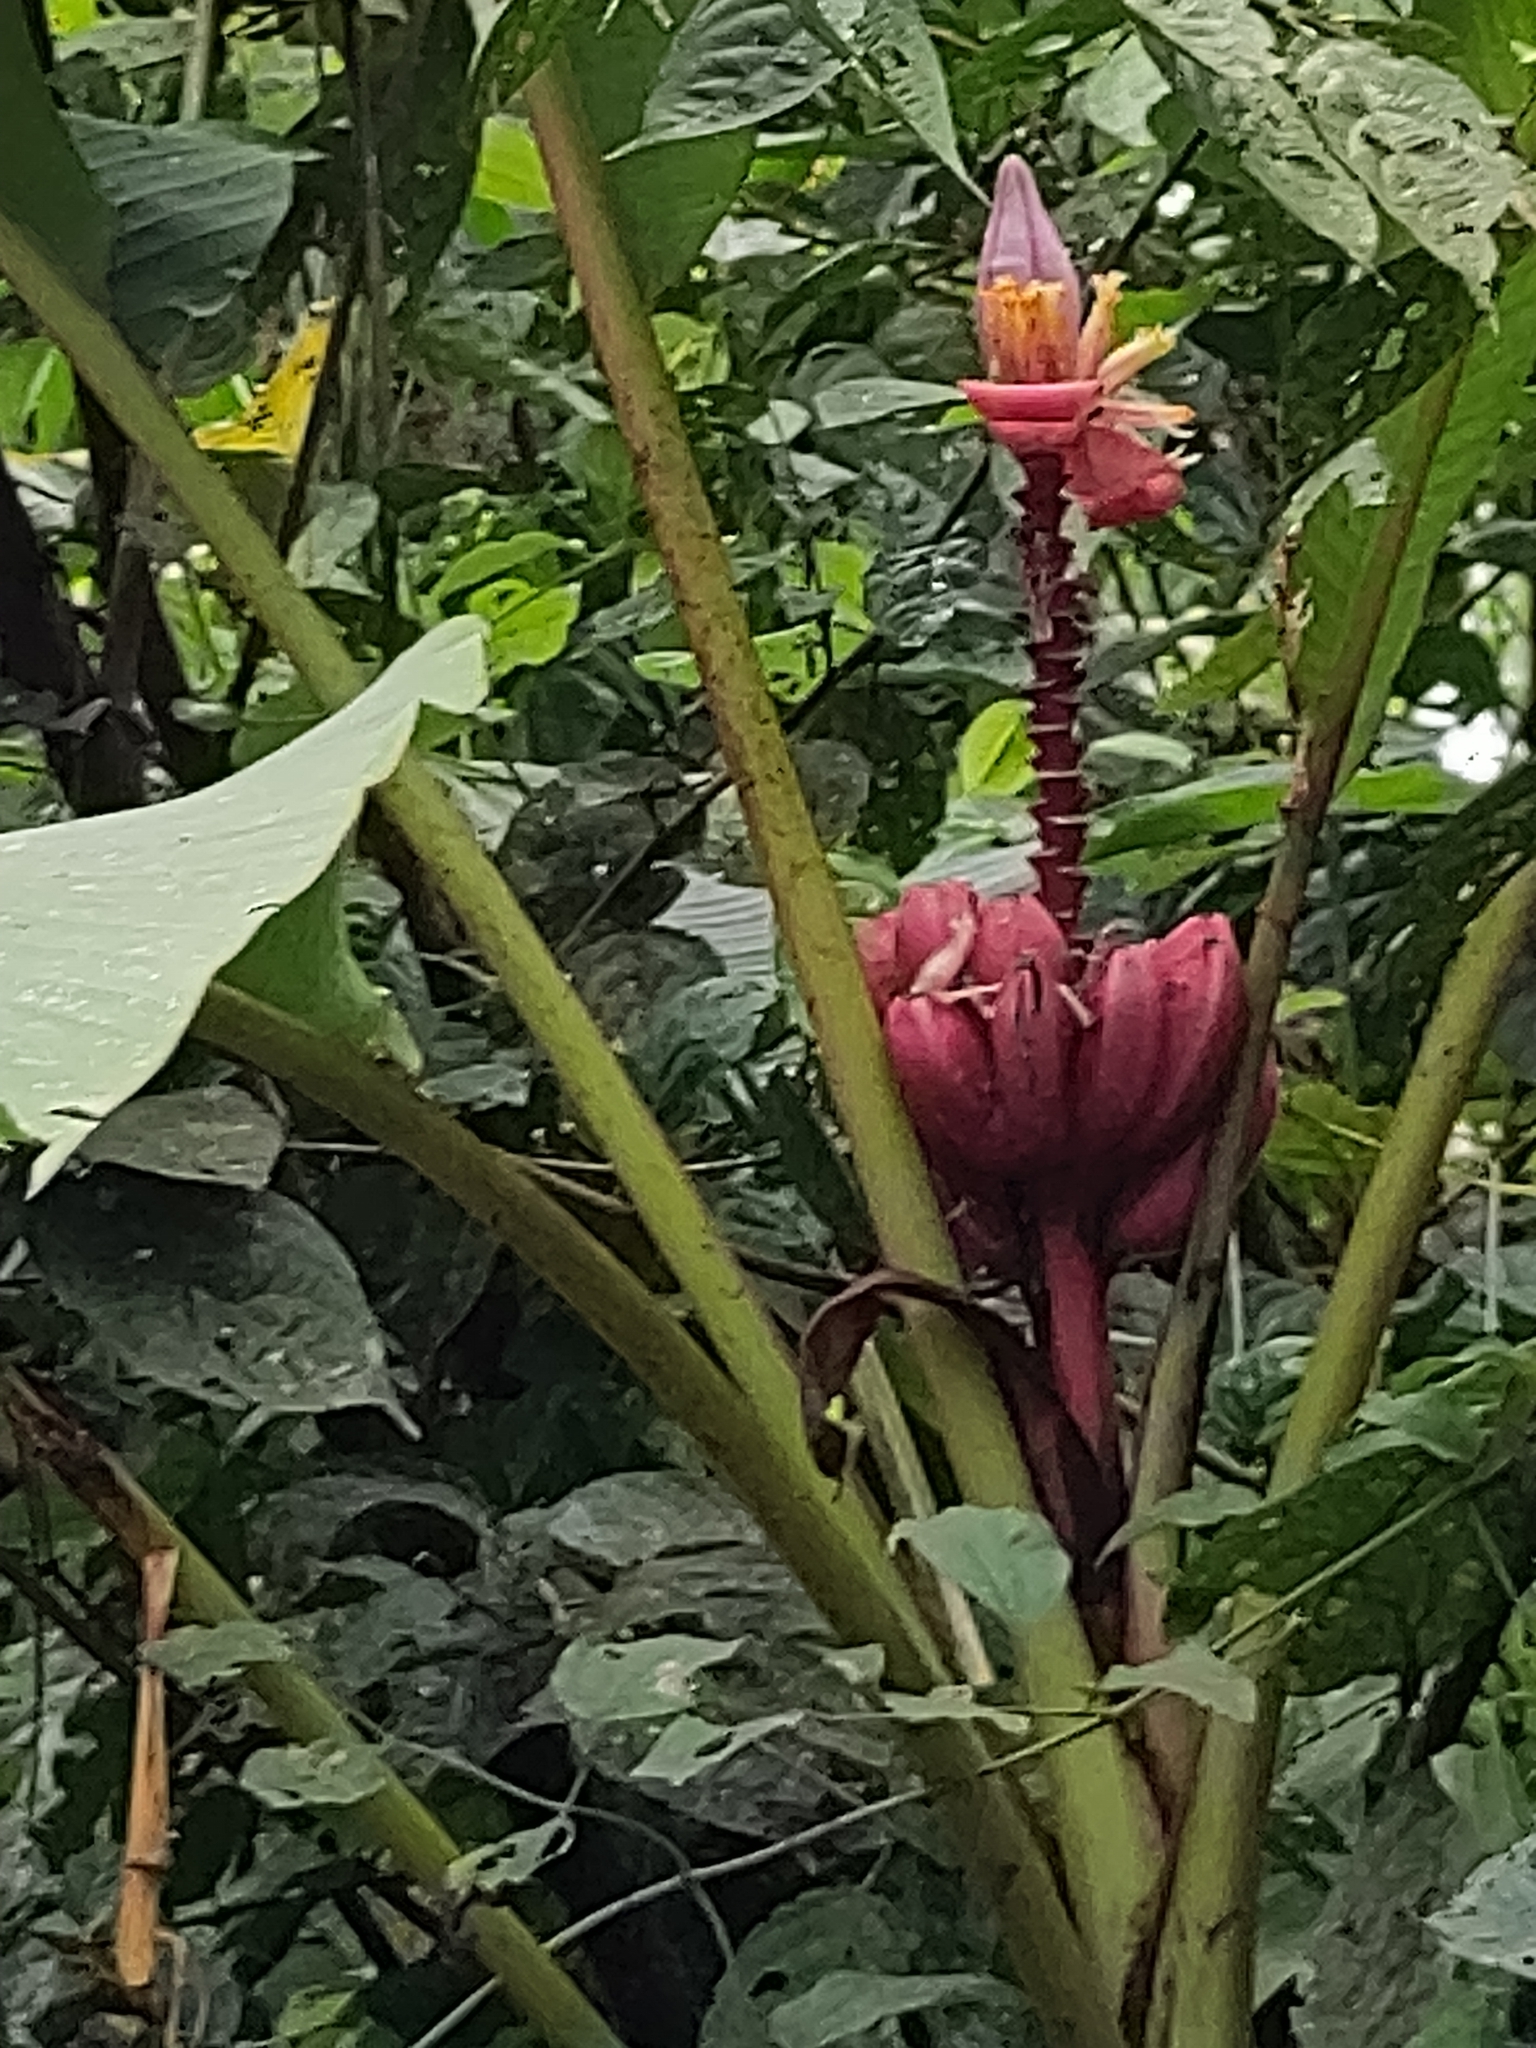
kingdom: Plantae
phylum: Tracheophyta
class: Liliopsida
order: Zingiberales
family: Musaceae
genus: Musa
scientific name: Musa velutina
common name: Pink velvet banana
